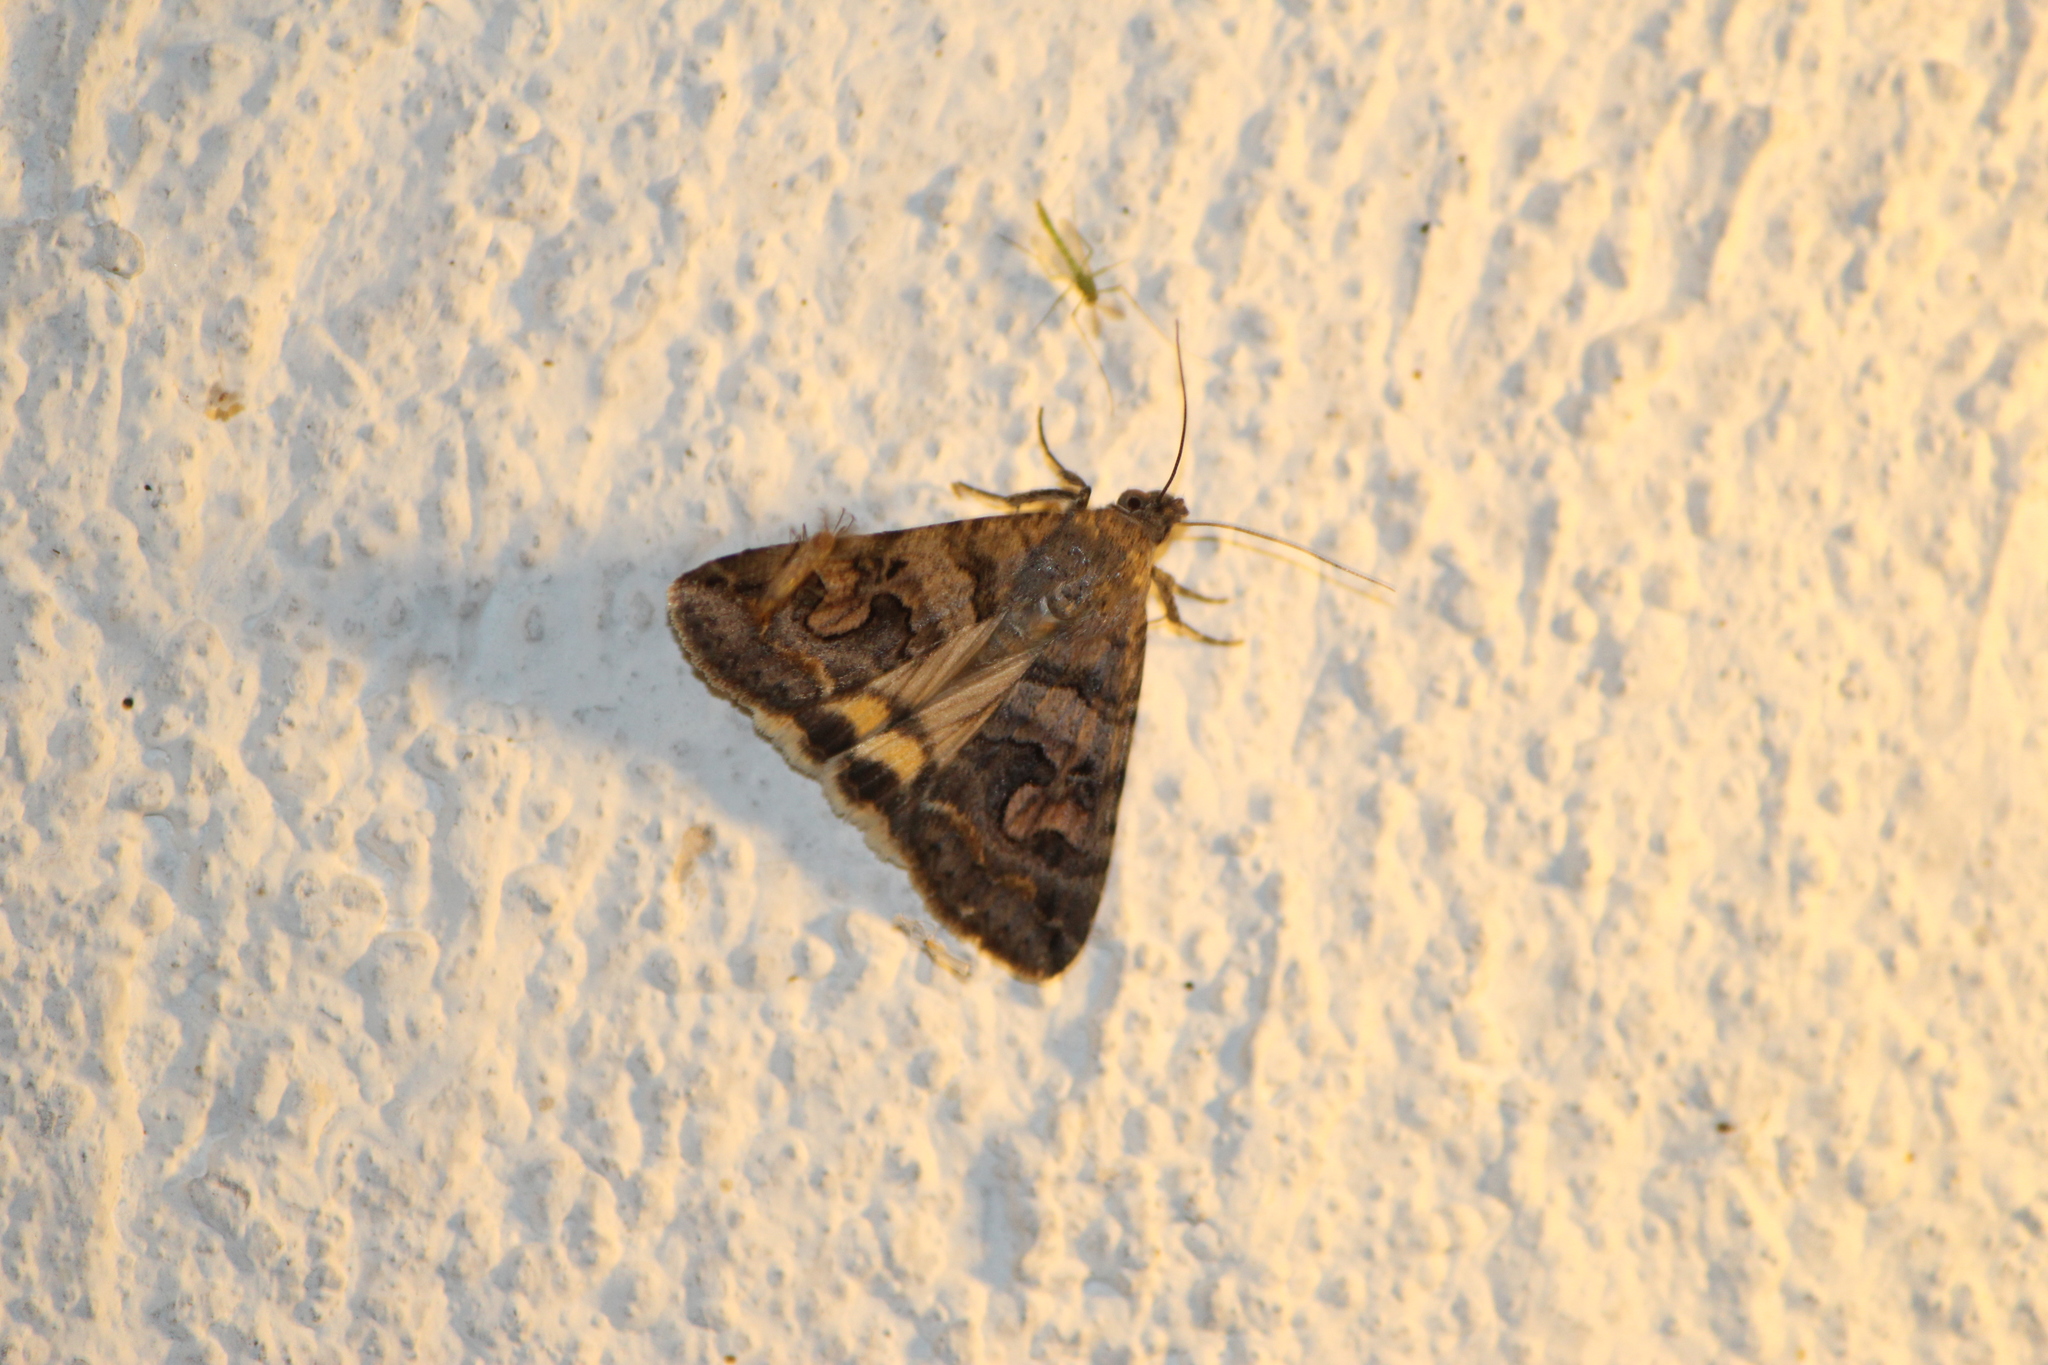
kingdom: Animalia
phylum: Arthropoda
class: Insecta
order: Lepidoptera
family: Erebidae
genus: Melipotis
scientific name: Melipotis perpendicularis
